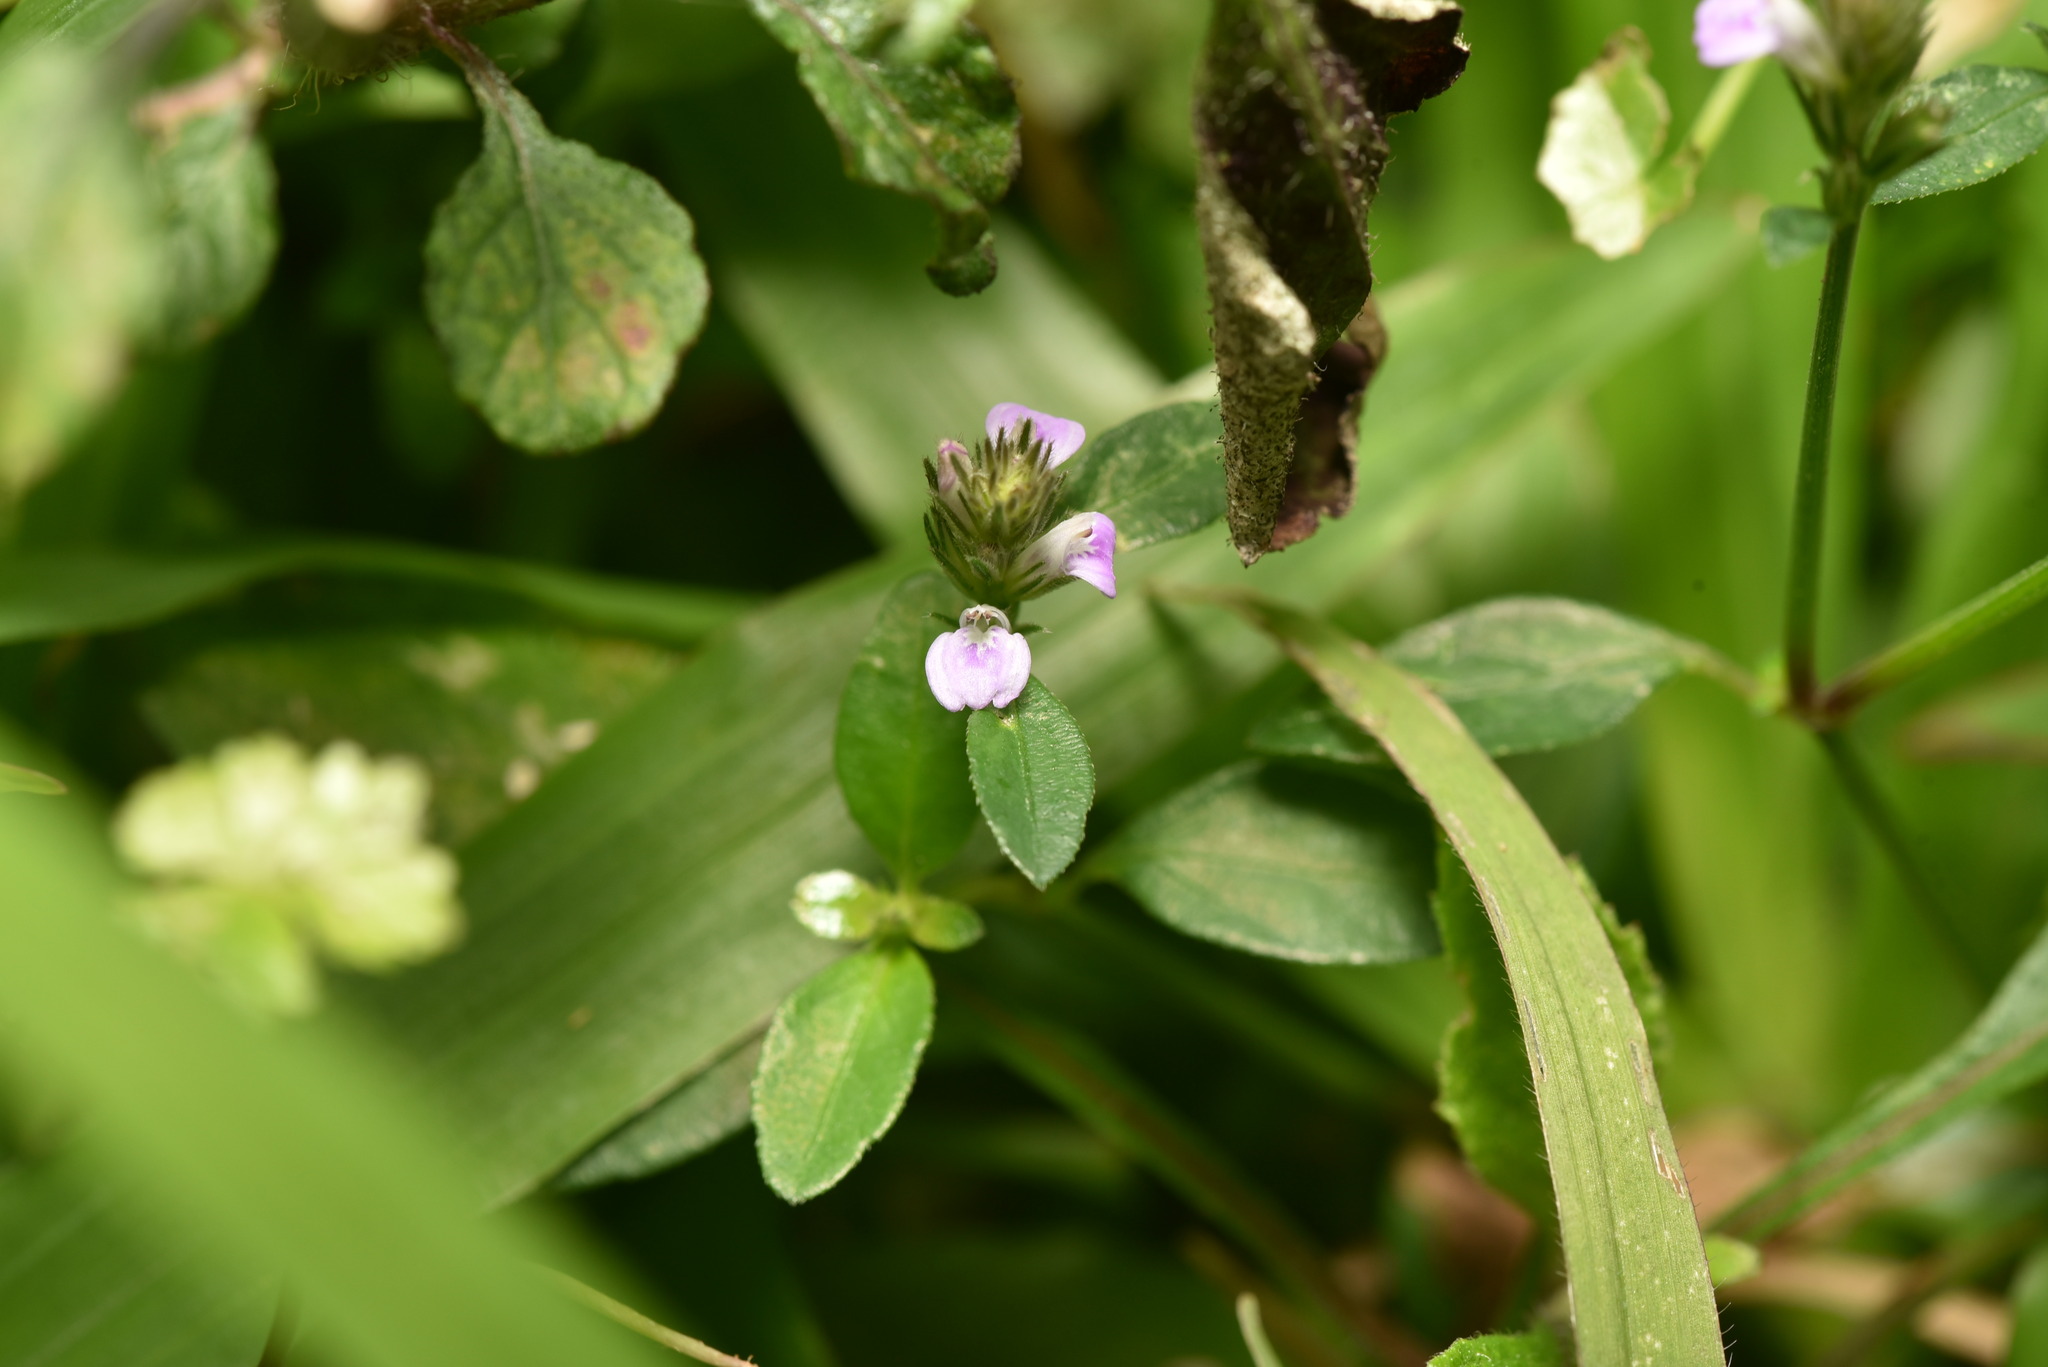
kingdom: Plantae
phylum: Tracheophyta
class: Magnoliopsida
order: Lamiales
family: Acanthaceae
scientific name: Acanthaceae
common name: Acanthaceae
